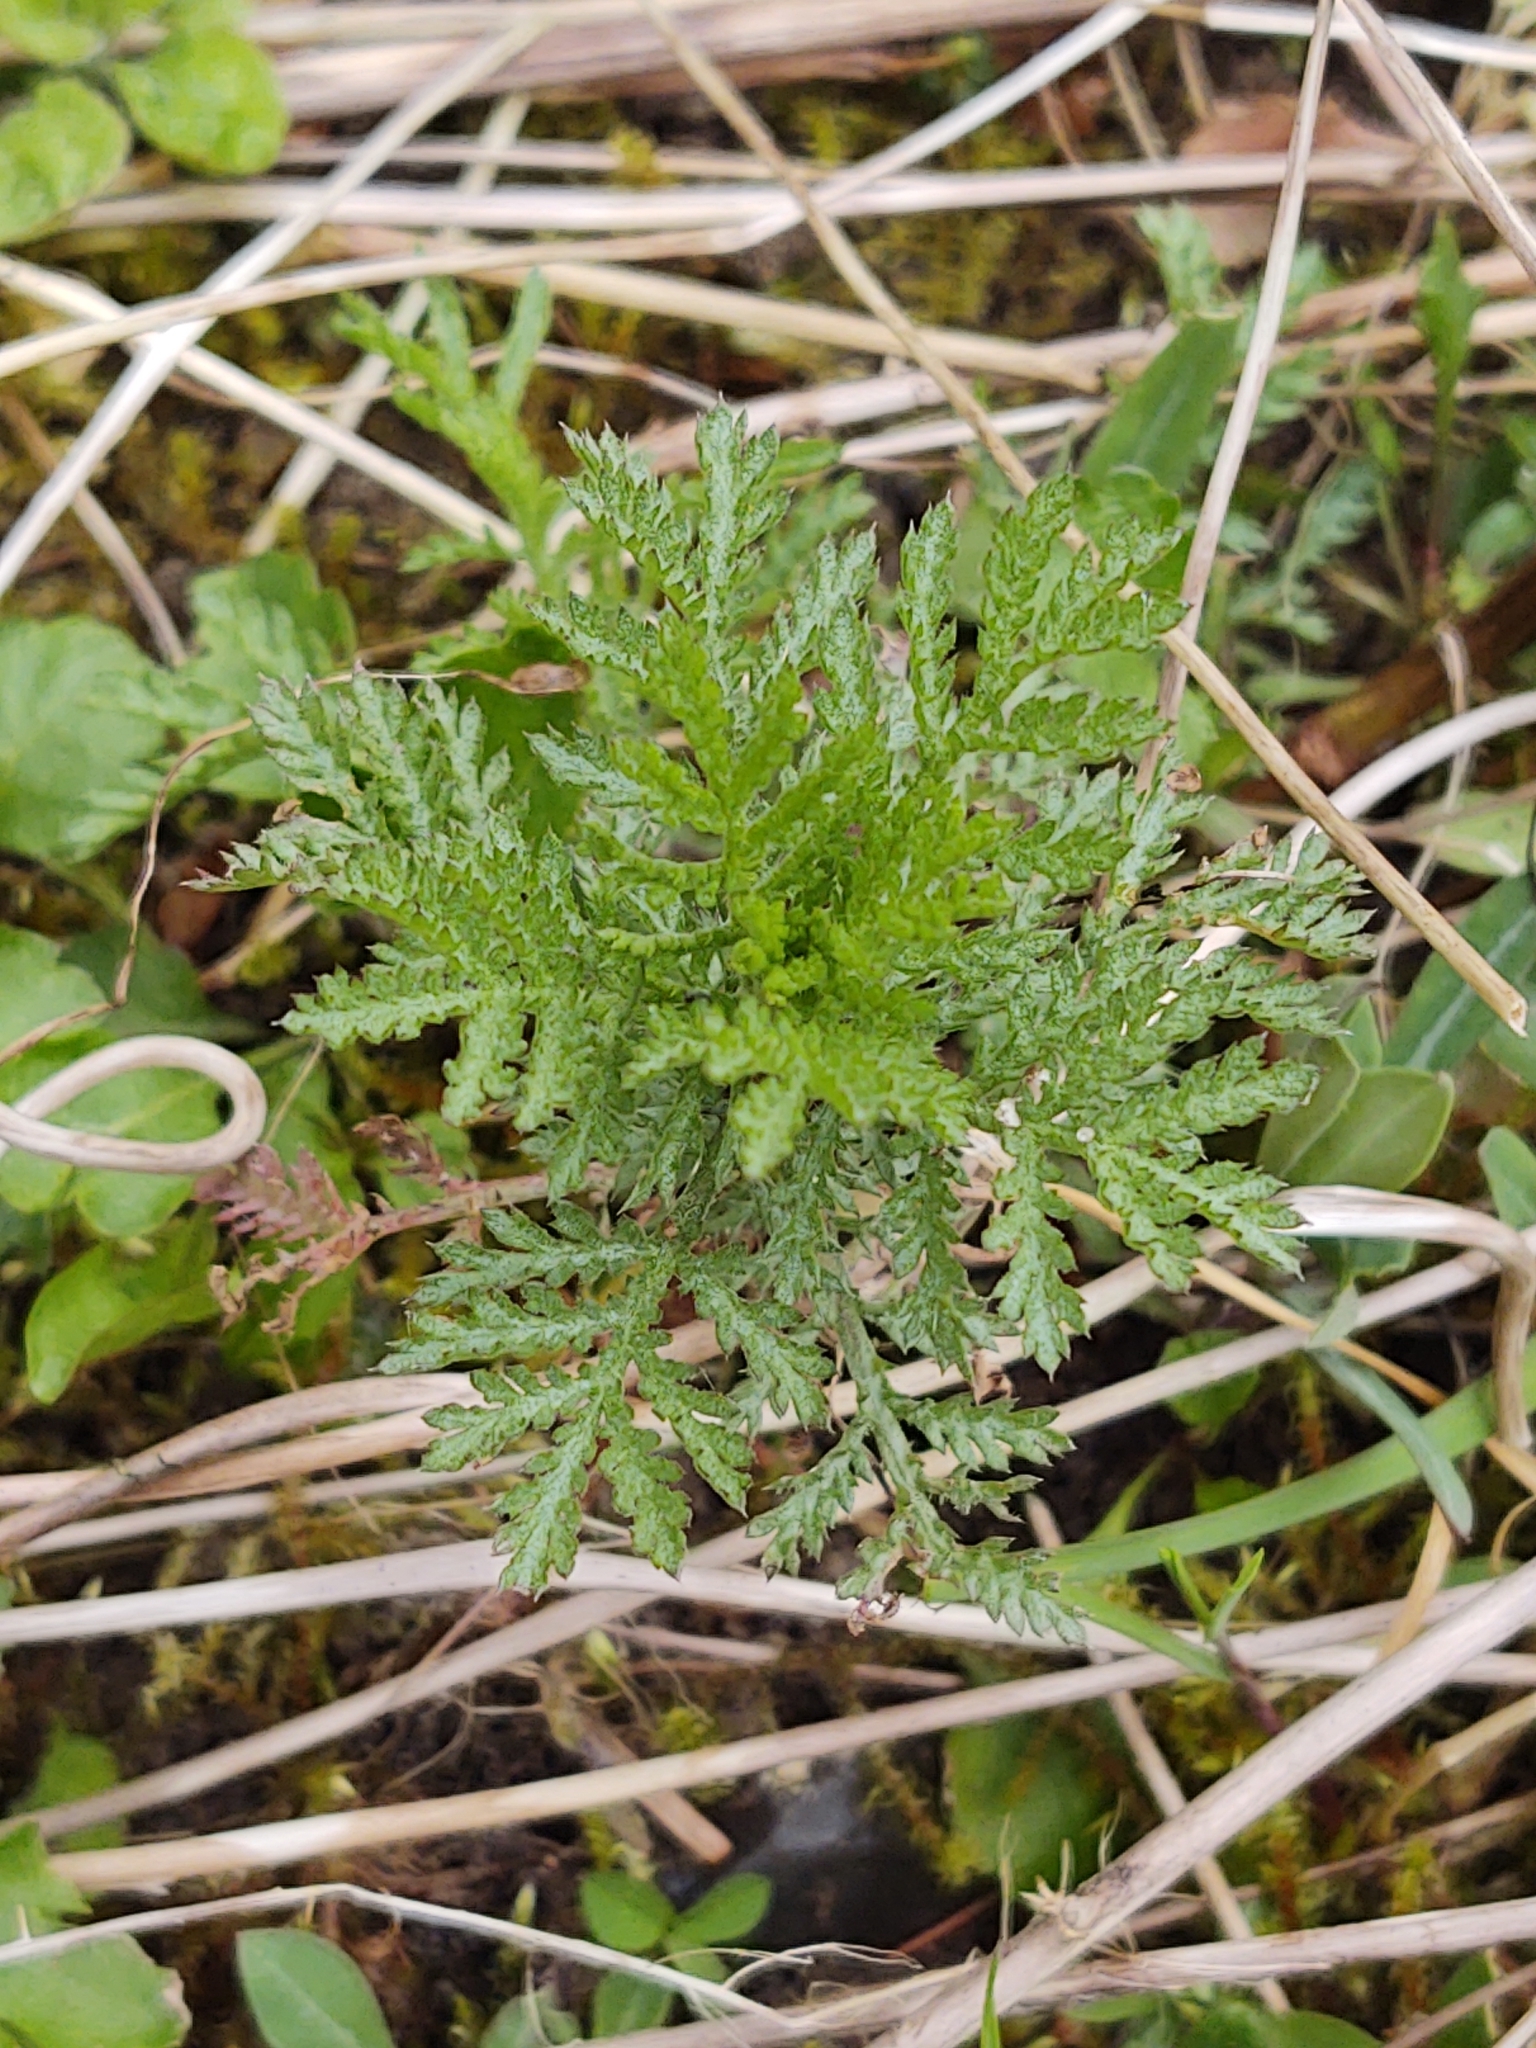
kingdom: Plantae
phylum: Tracheophyta
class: Magnoliopsida
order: Asterales
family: Asteraceae
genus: Tanacetum
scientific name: Tanacetum vulgare
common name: Common tansy
